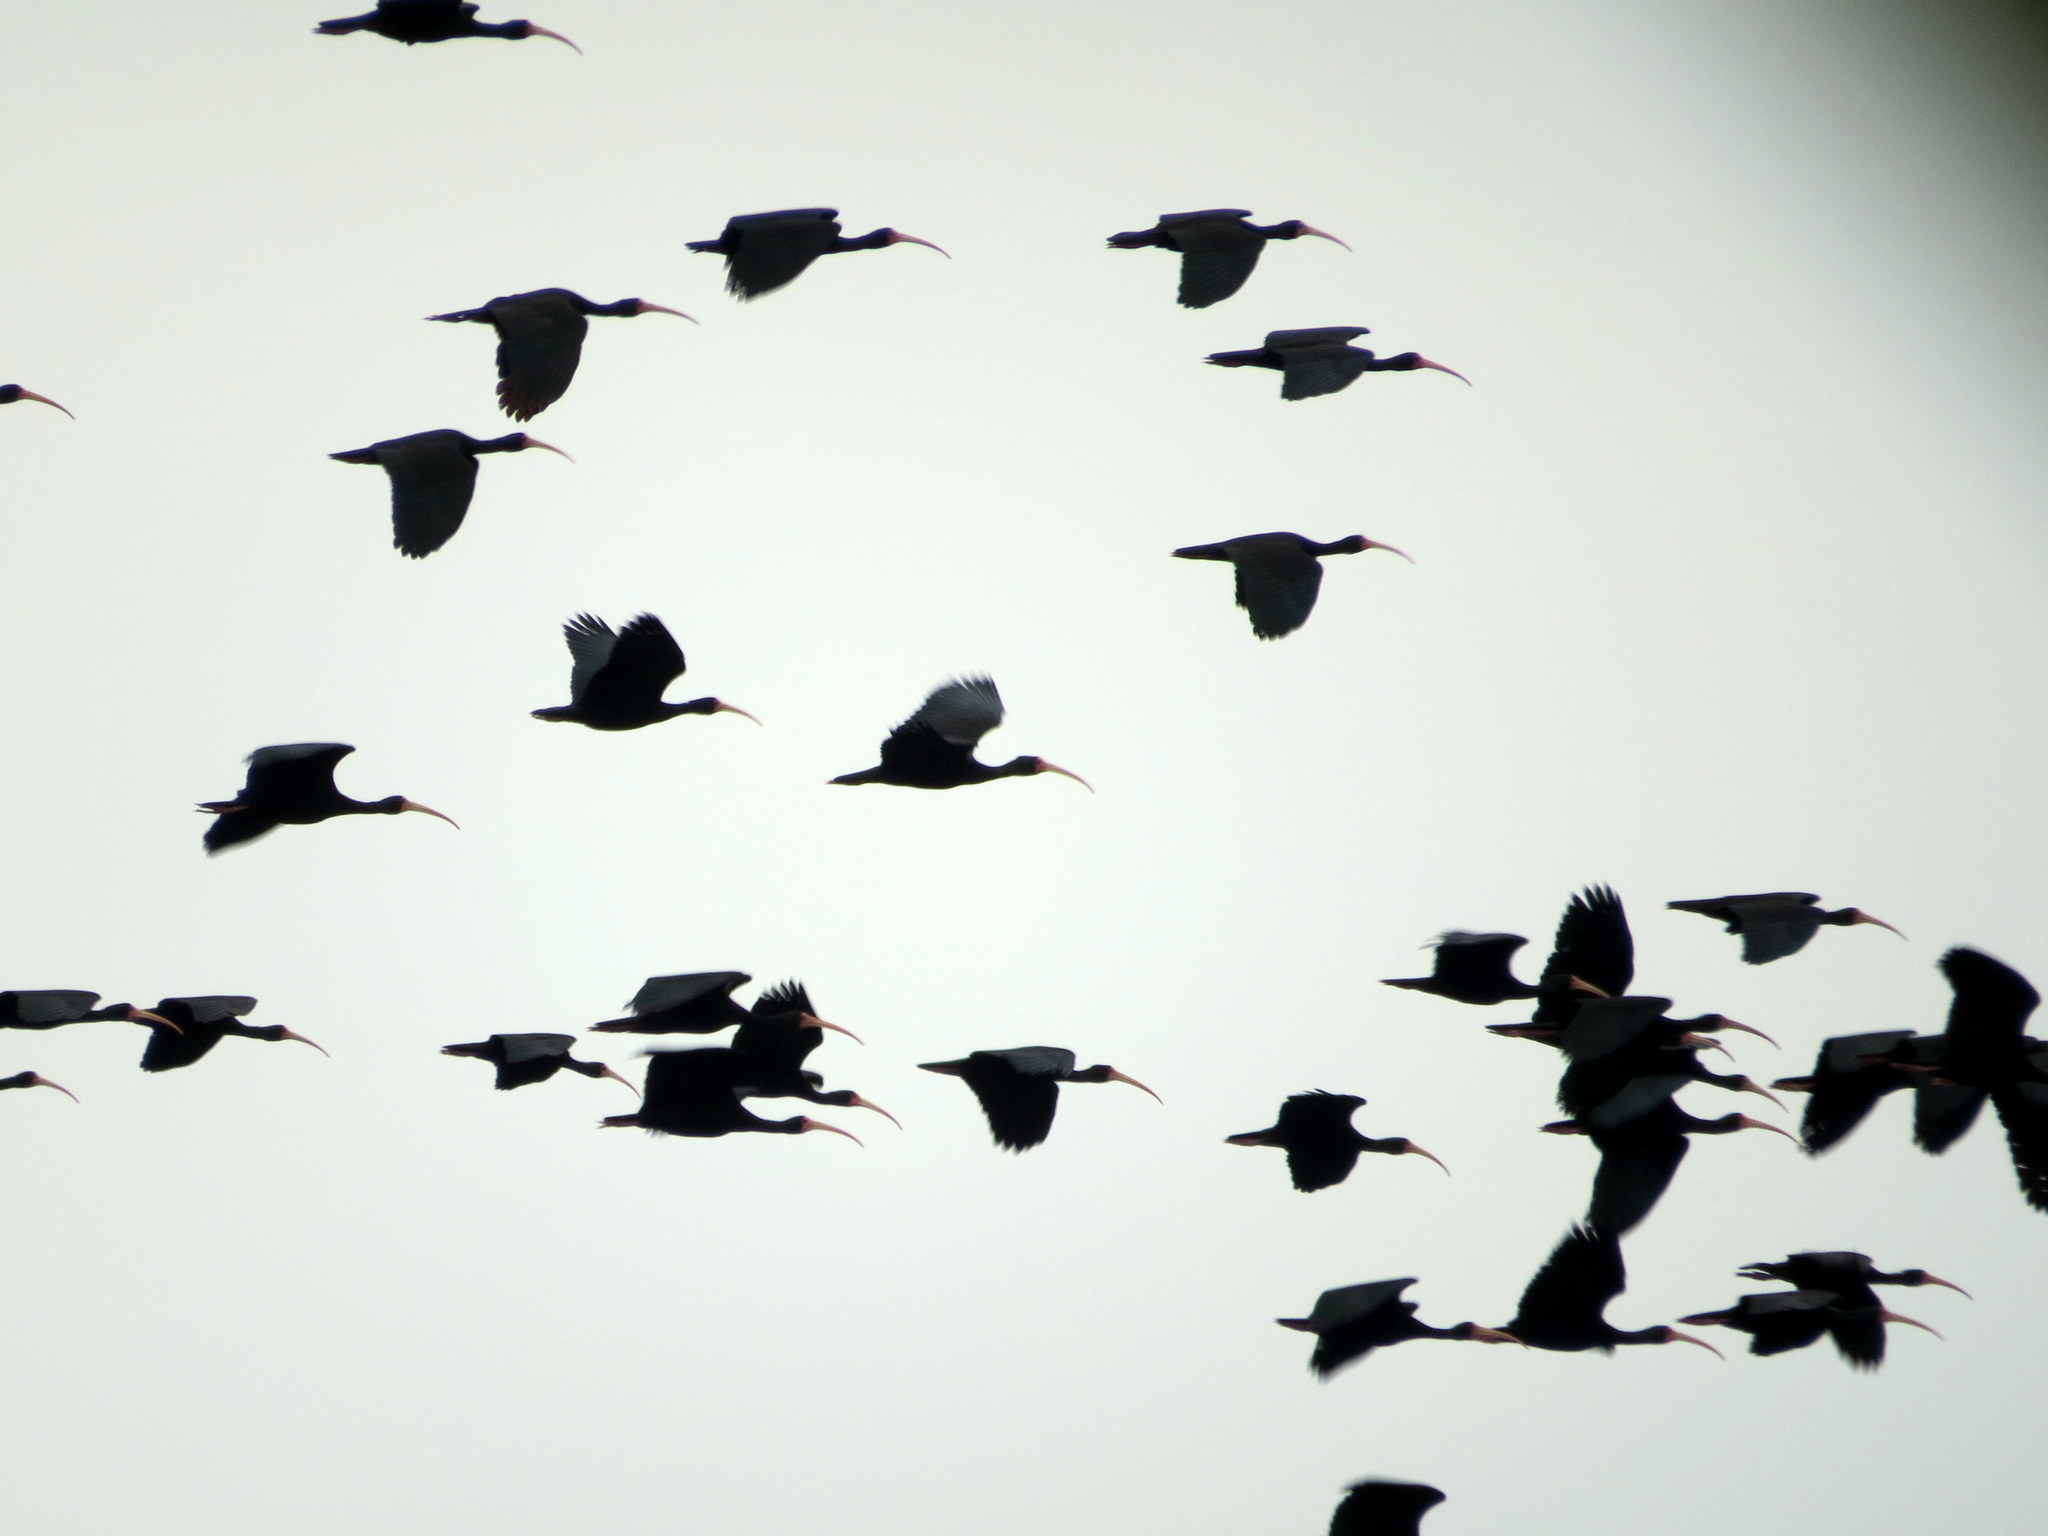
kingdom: Animalia
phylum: Chordata
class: Aves
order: Pelecaniformes
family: Threskiornithidae
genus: Phimosus
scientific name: Phimosus infuscatus
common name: Bare-faced ibis
